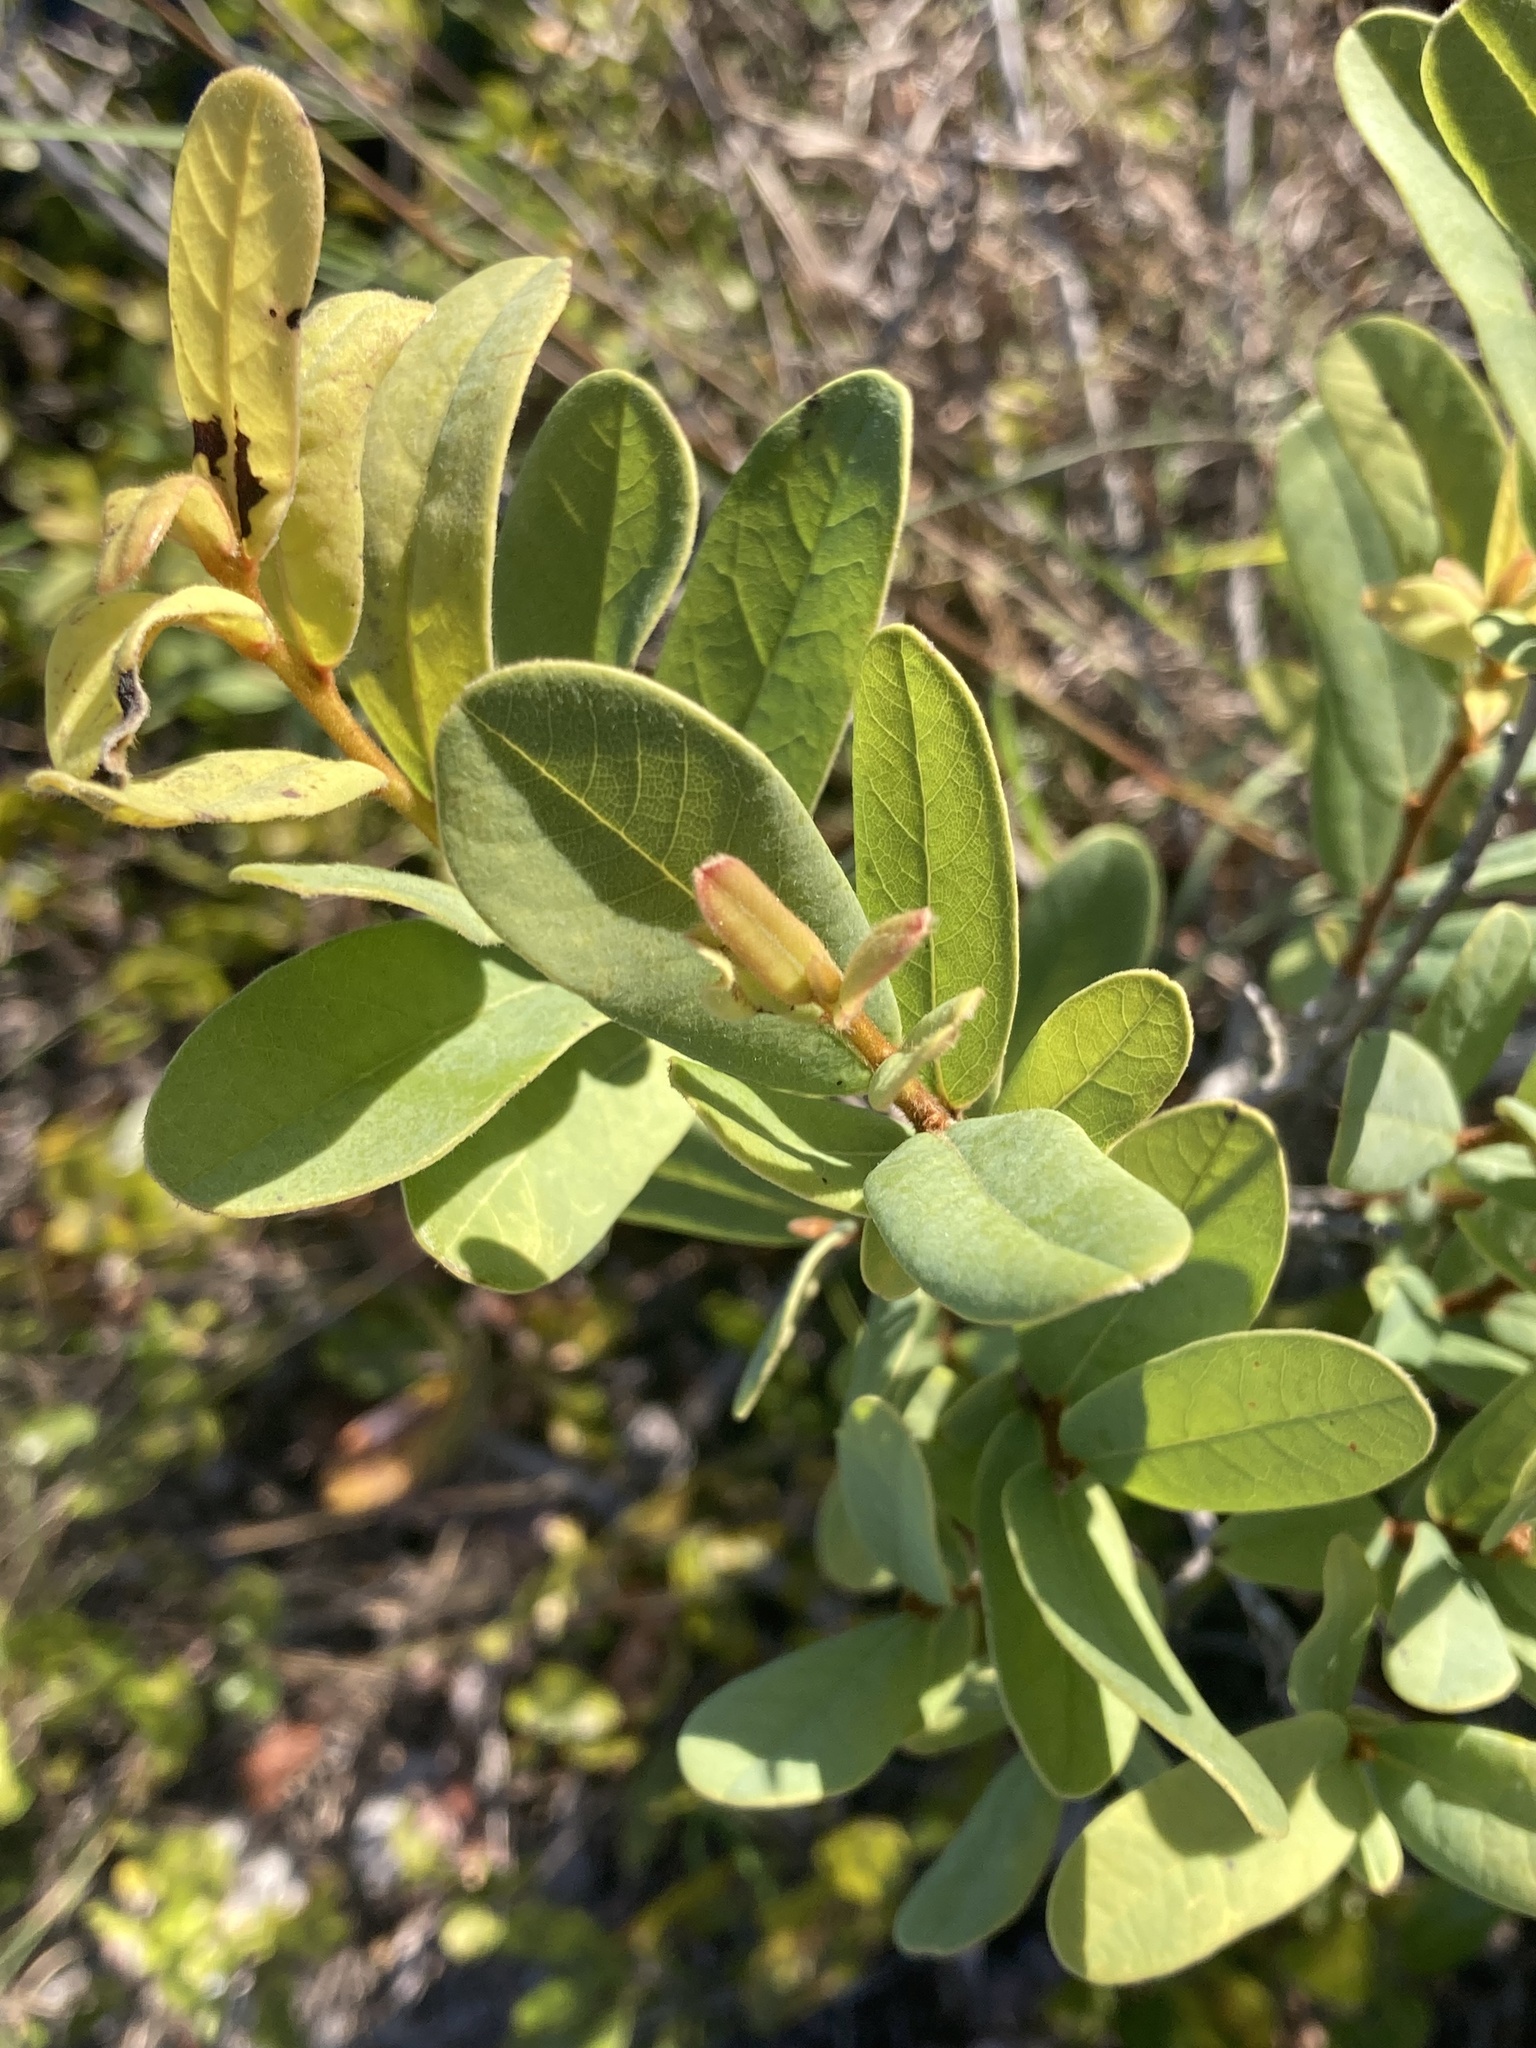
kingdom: Plantae
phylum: Tracheophyta
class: Magnoliopsida
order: Magnoliales
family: Annonaceae
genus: Asimina
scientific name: Asimina reticulata
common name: Flag pawpaw
